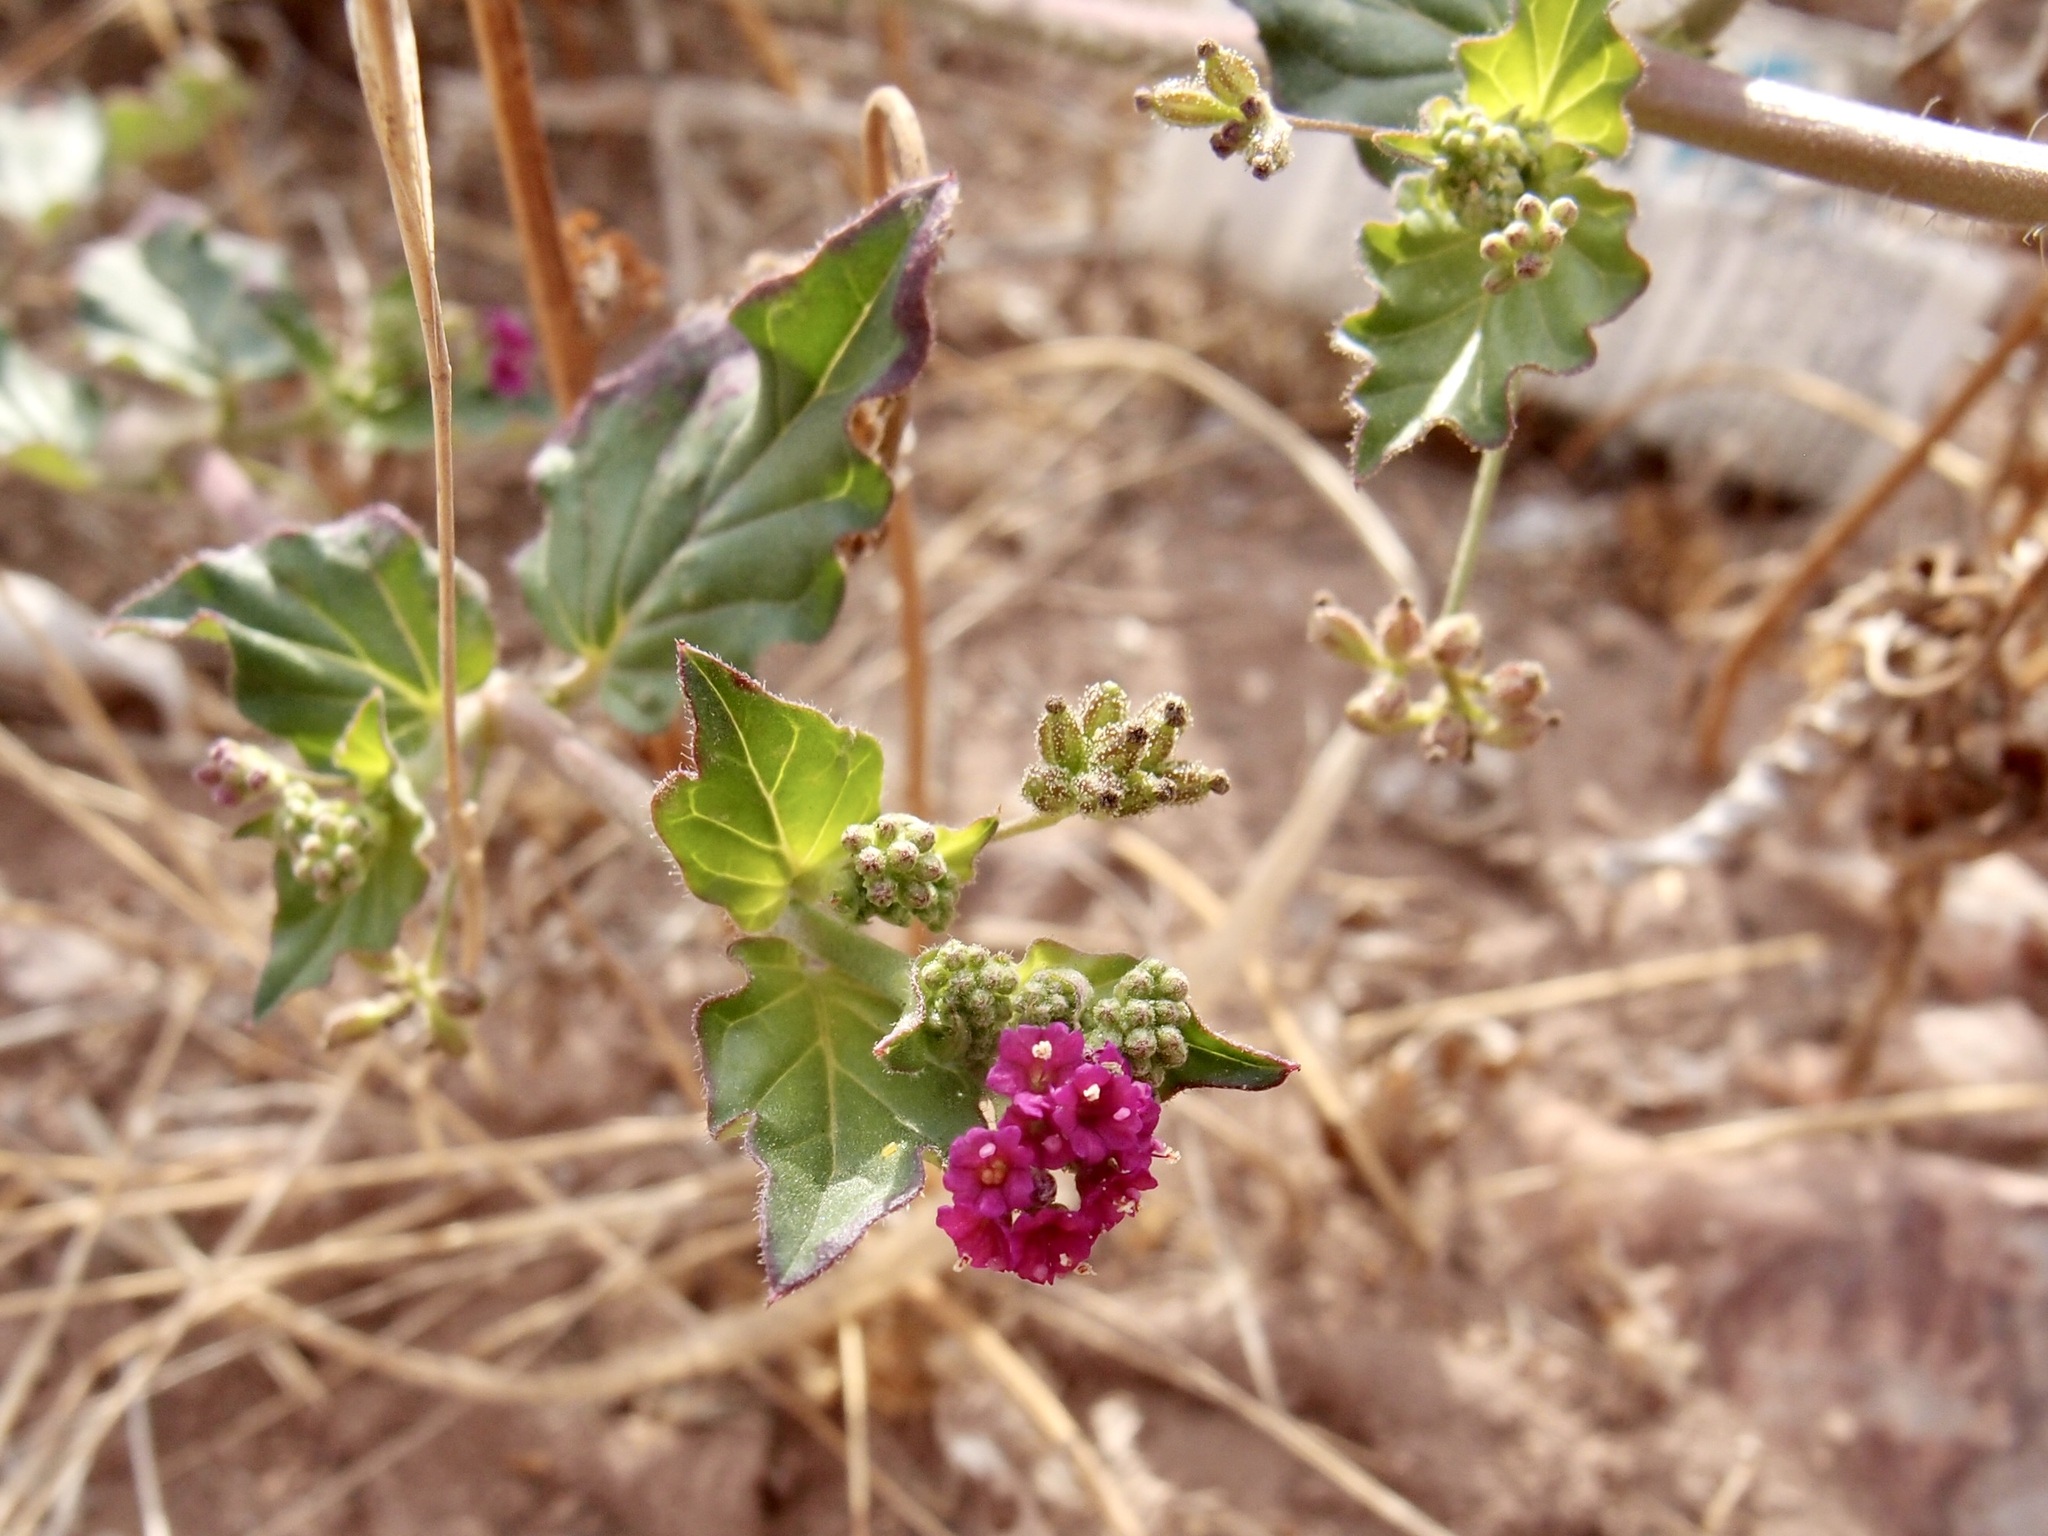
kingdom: Plantae
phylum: Tracheophyta
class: Magnoliopsida
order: Caryophyllales
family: Nyctaginaceae
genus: Boerhavia
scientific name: Boerhavia coccinea
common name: Scarlet spiderling
